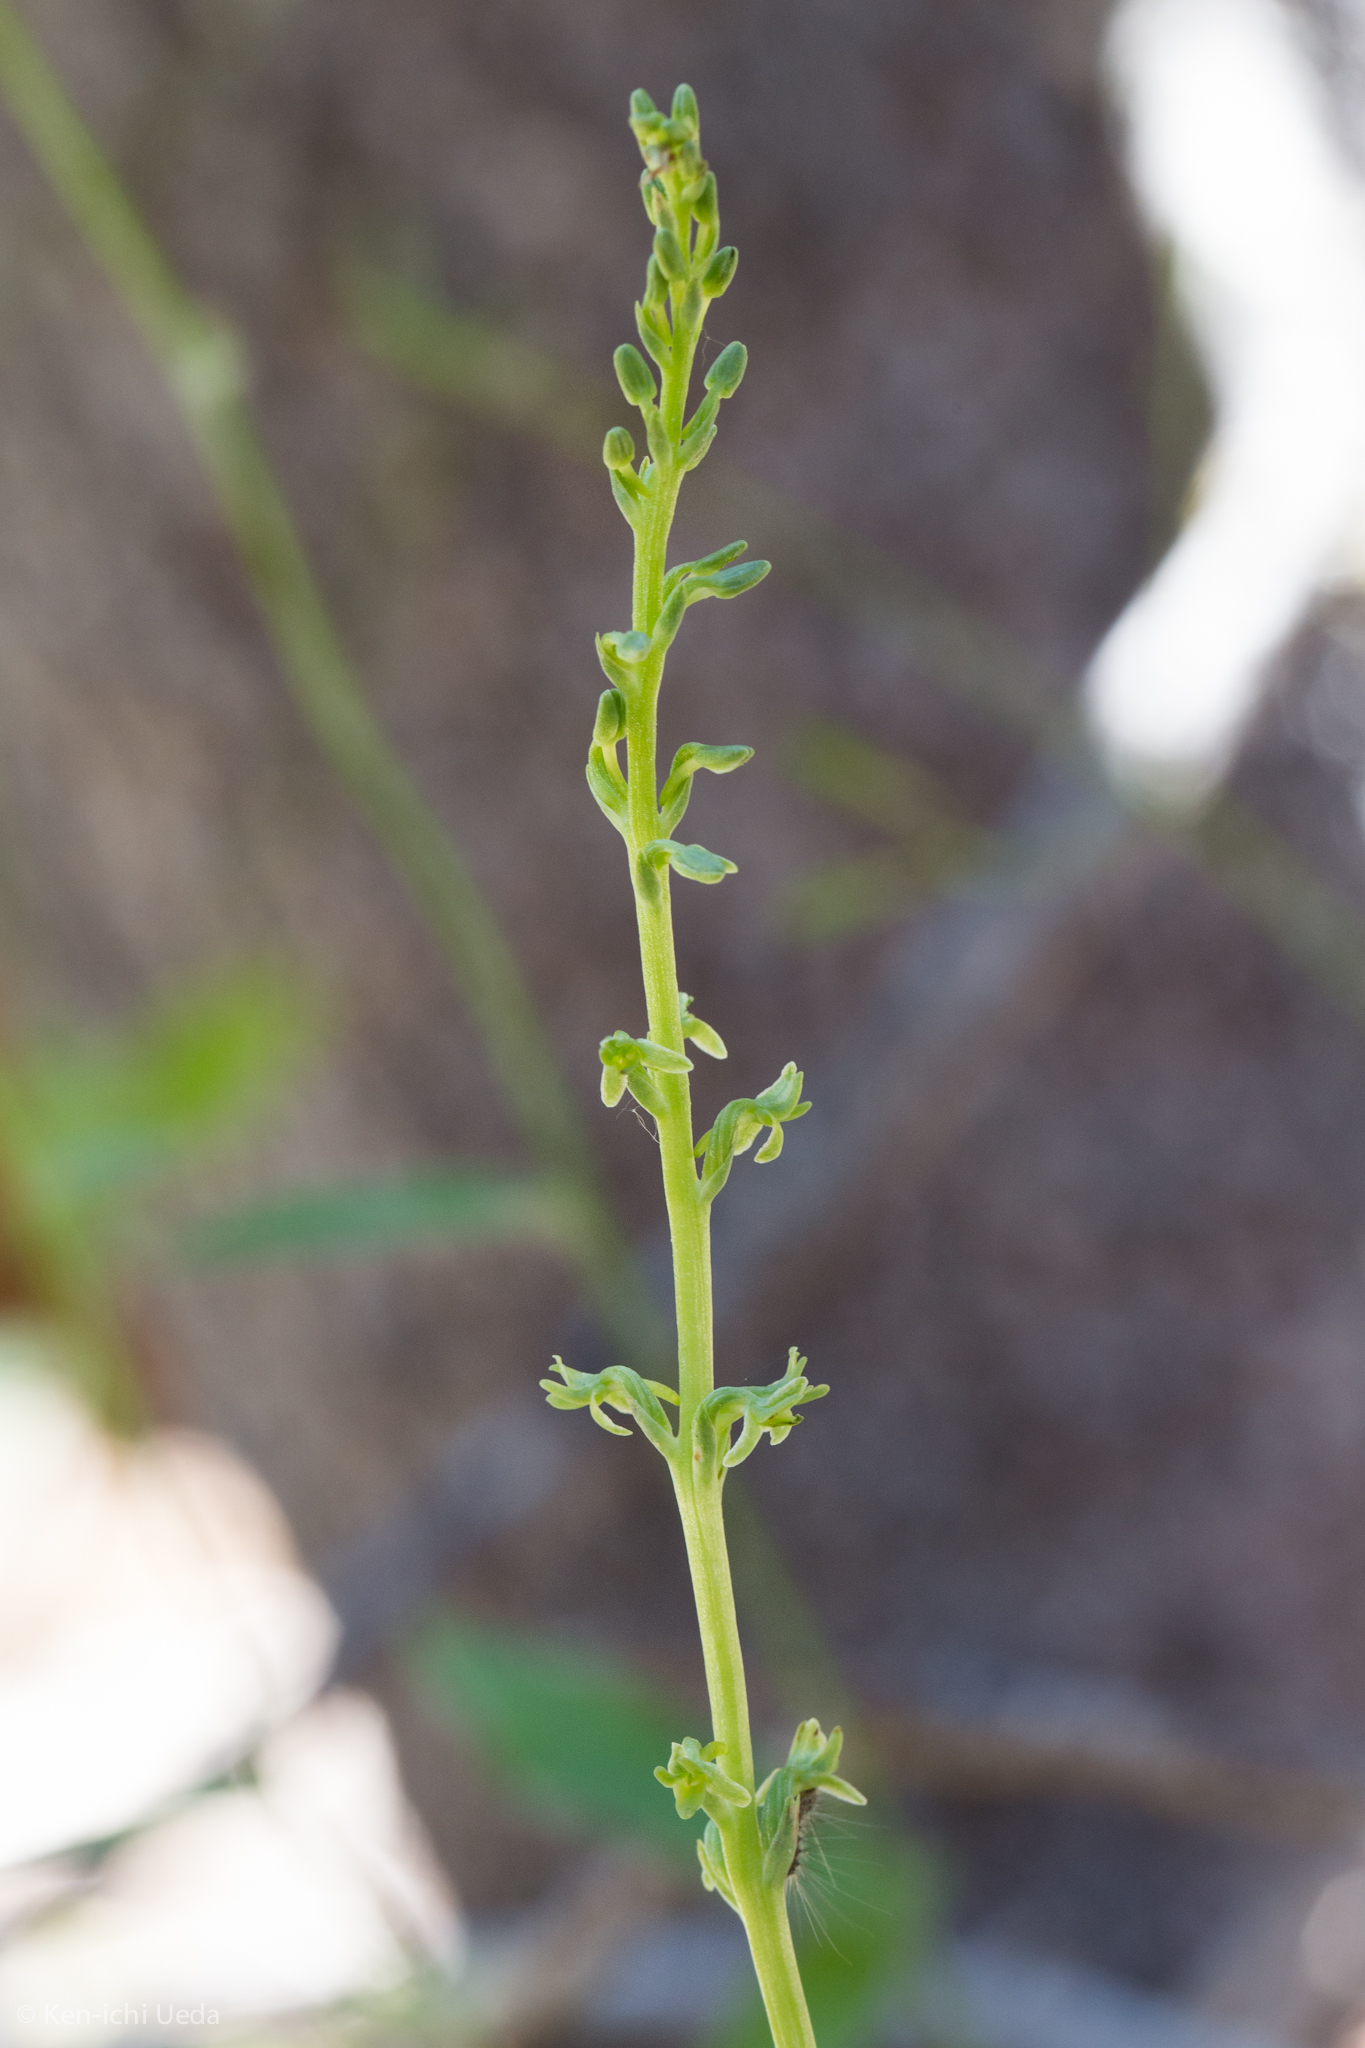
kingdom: Plantae
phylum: Tracheophyta
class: Liliopsida
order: Asparagales
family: Orchidaceae
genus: Platanthera
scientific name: Platanthera unalascensis
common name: Alaska bog orchid
